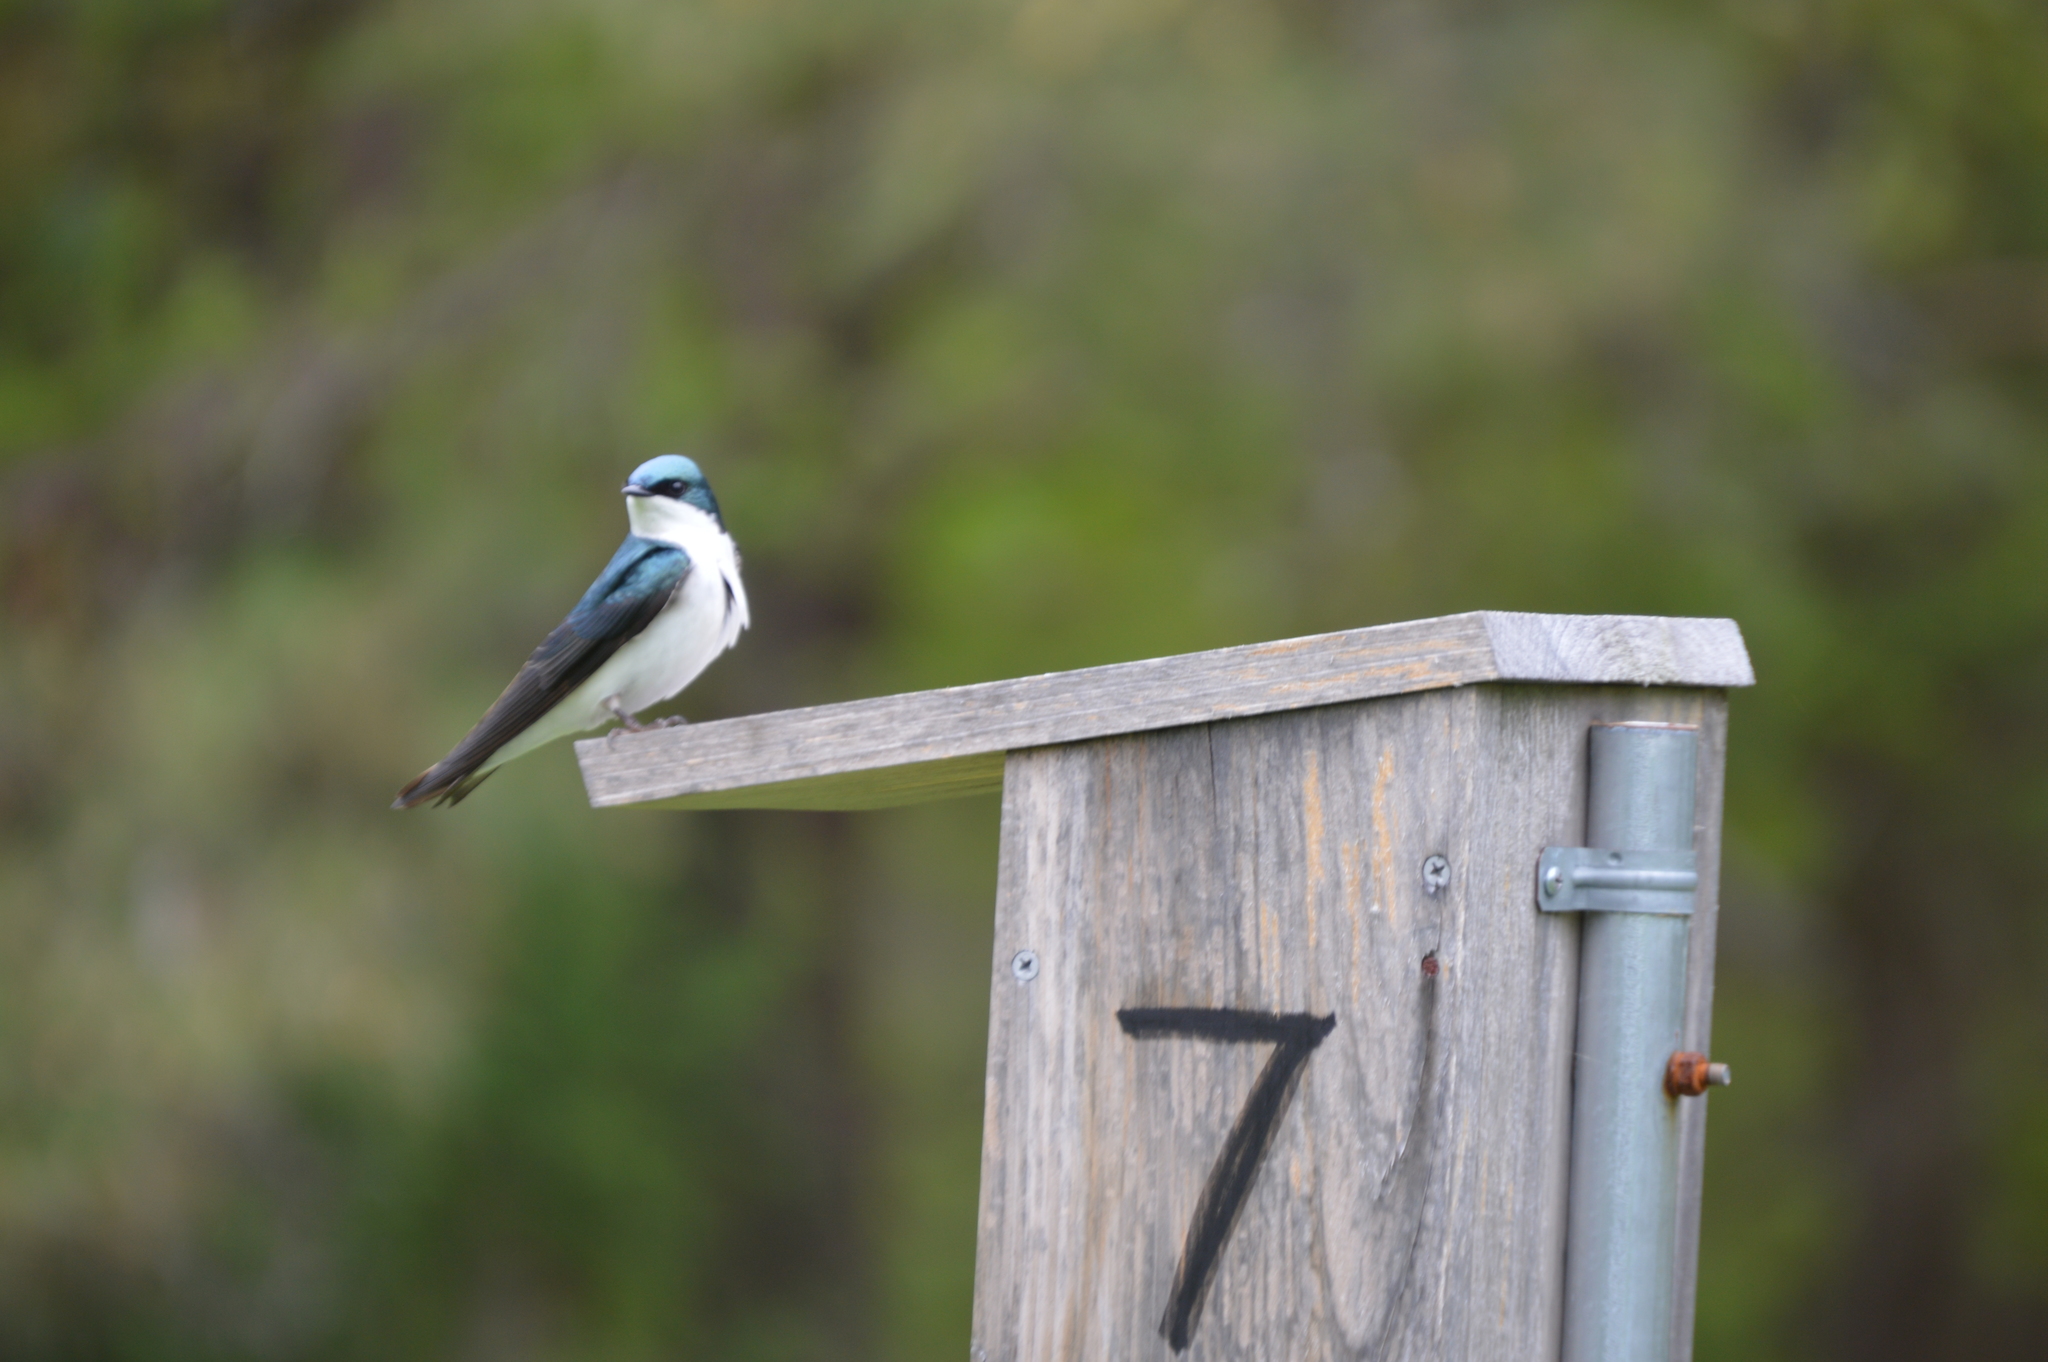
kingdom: Animalia
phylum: Chordata
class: Aves
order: Passeriformes
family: Hirundinidae
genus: Tachycineta
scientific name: Tachycineta bicolor
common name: Tree swallow
